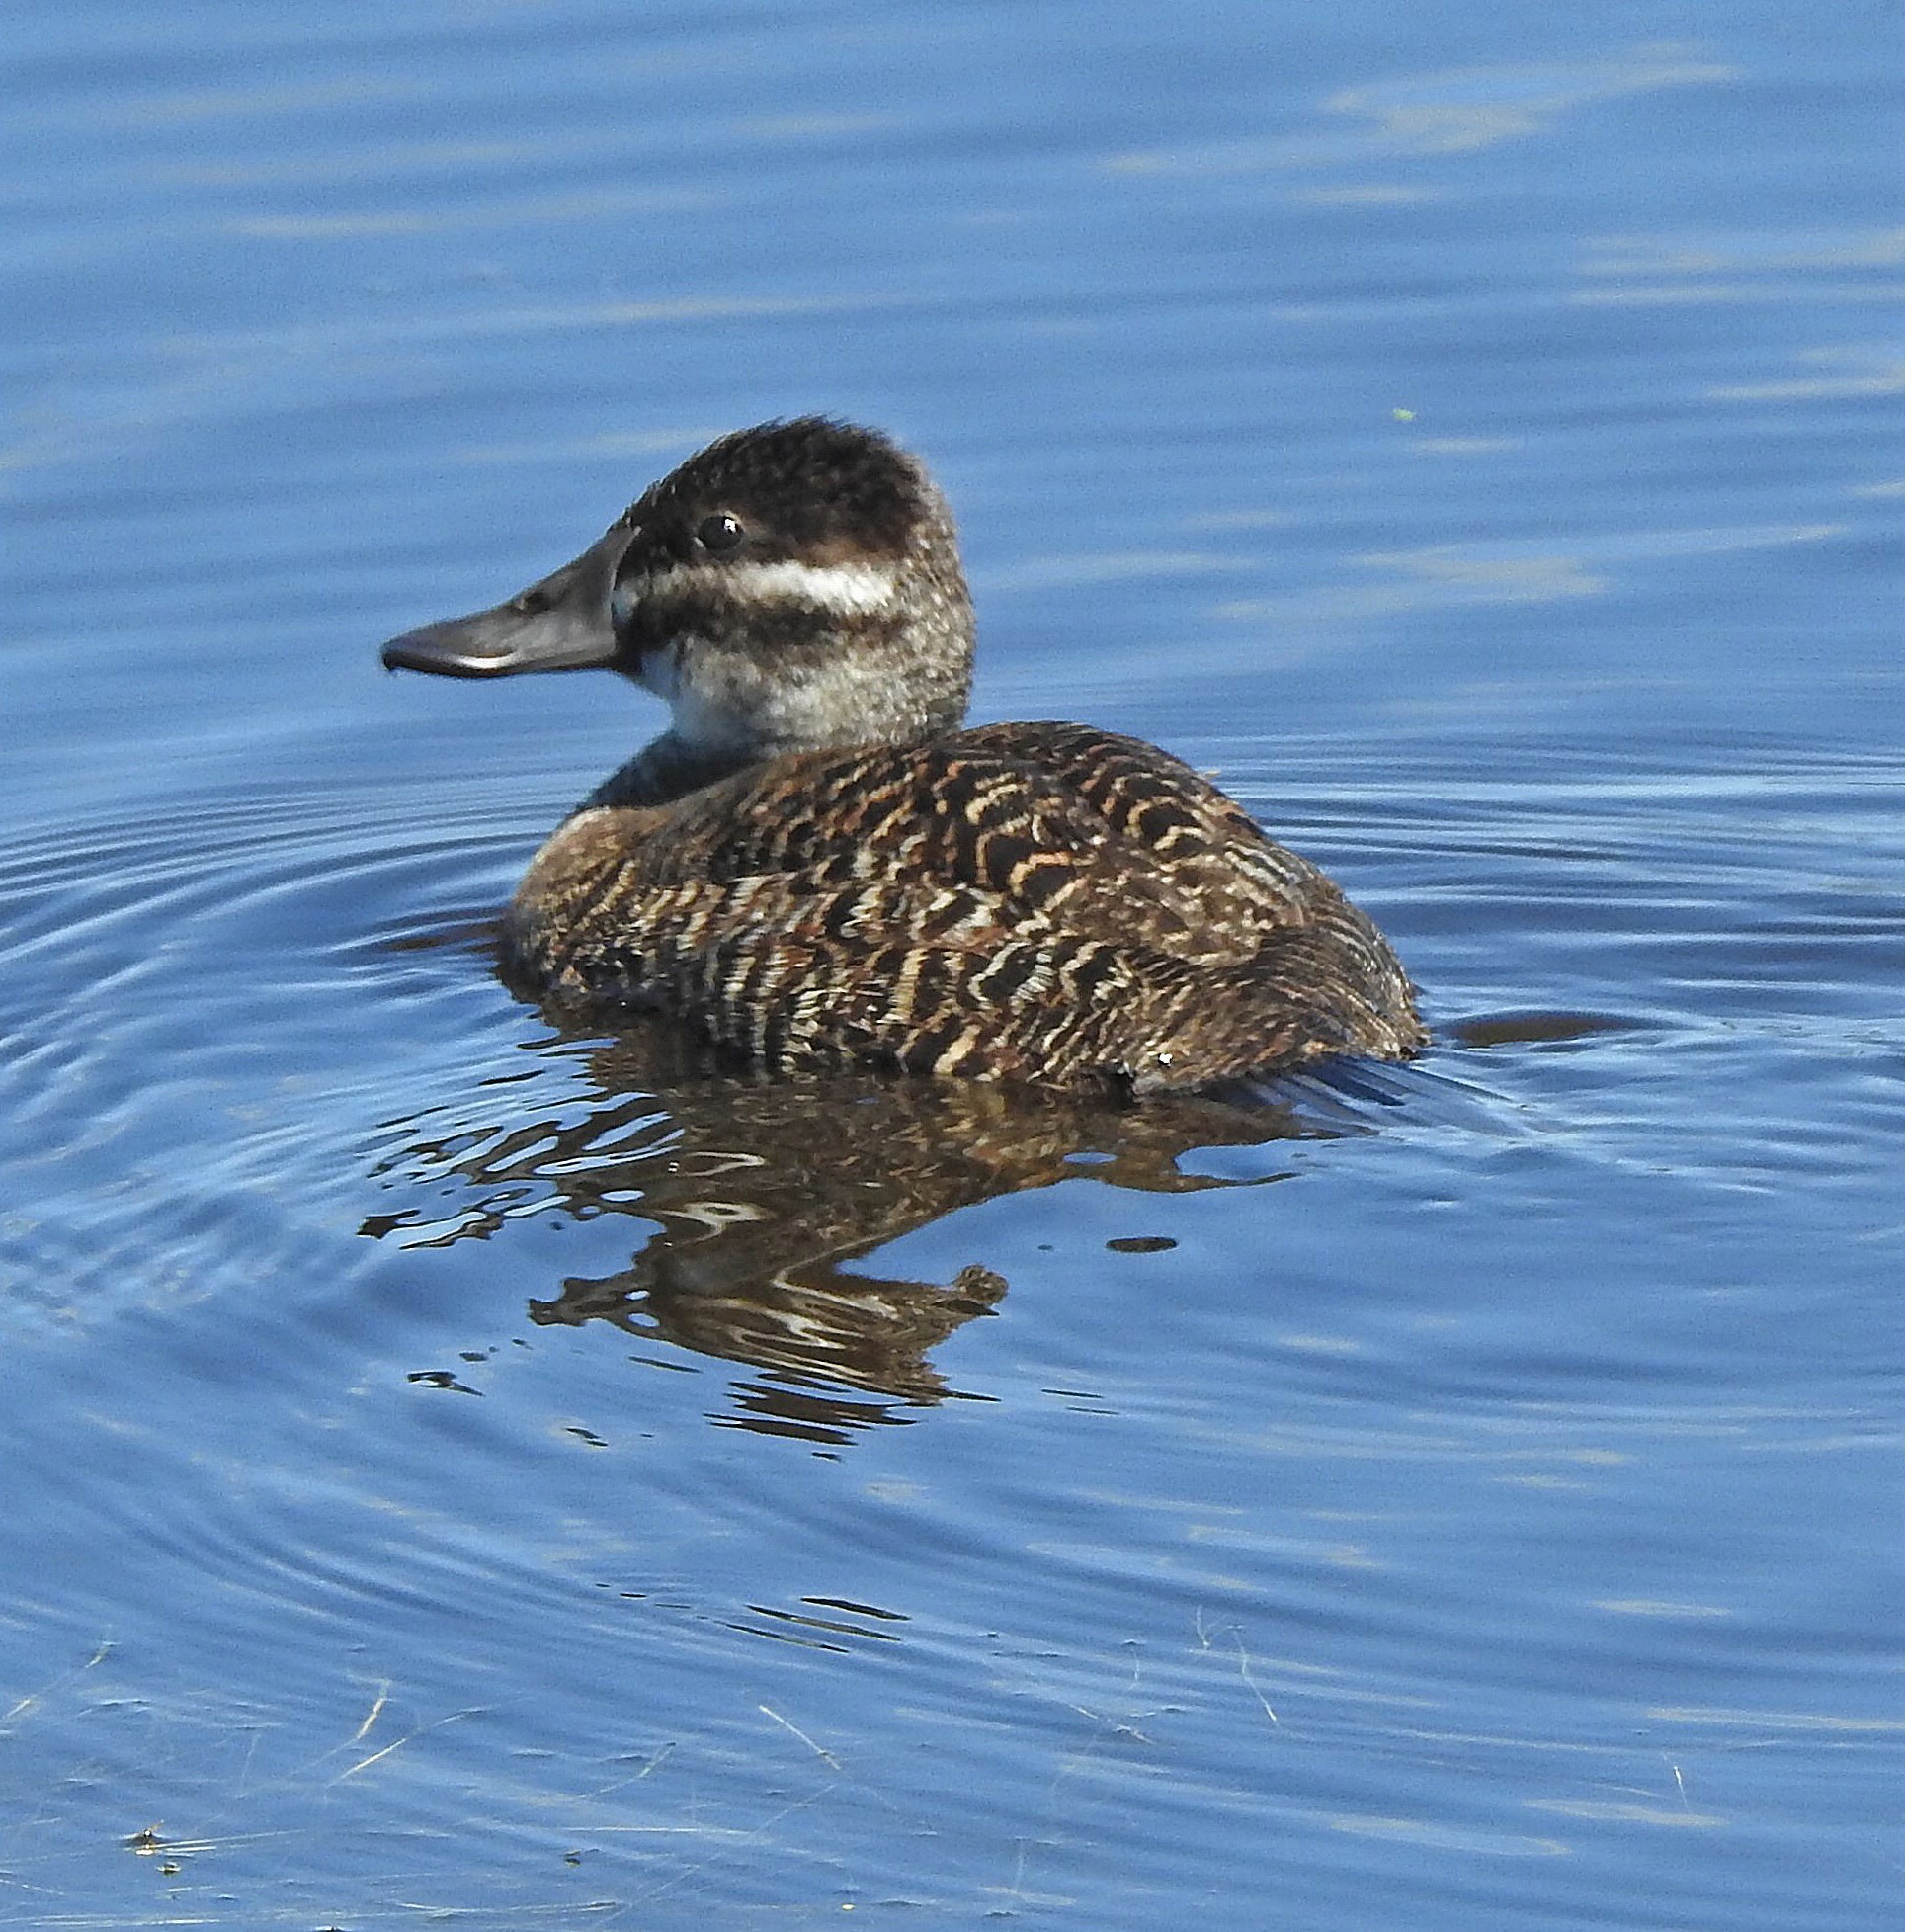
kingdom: Animalia
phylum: Chordata
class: Aves
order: Anseriformes
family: Anatidae
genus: Oxyura
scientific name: Oxyura vittata
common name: Lake duck
